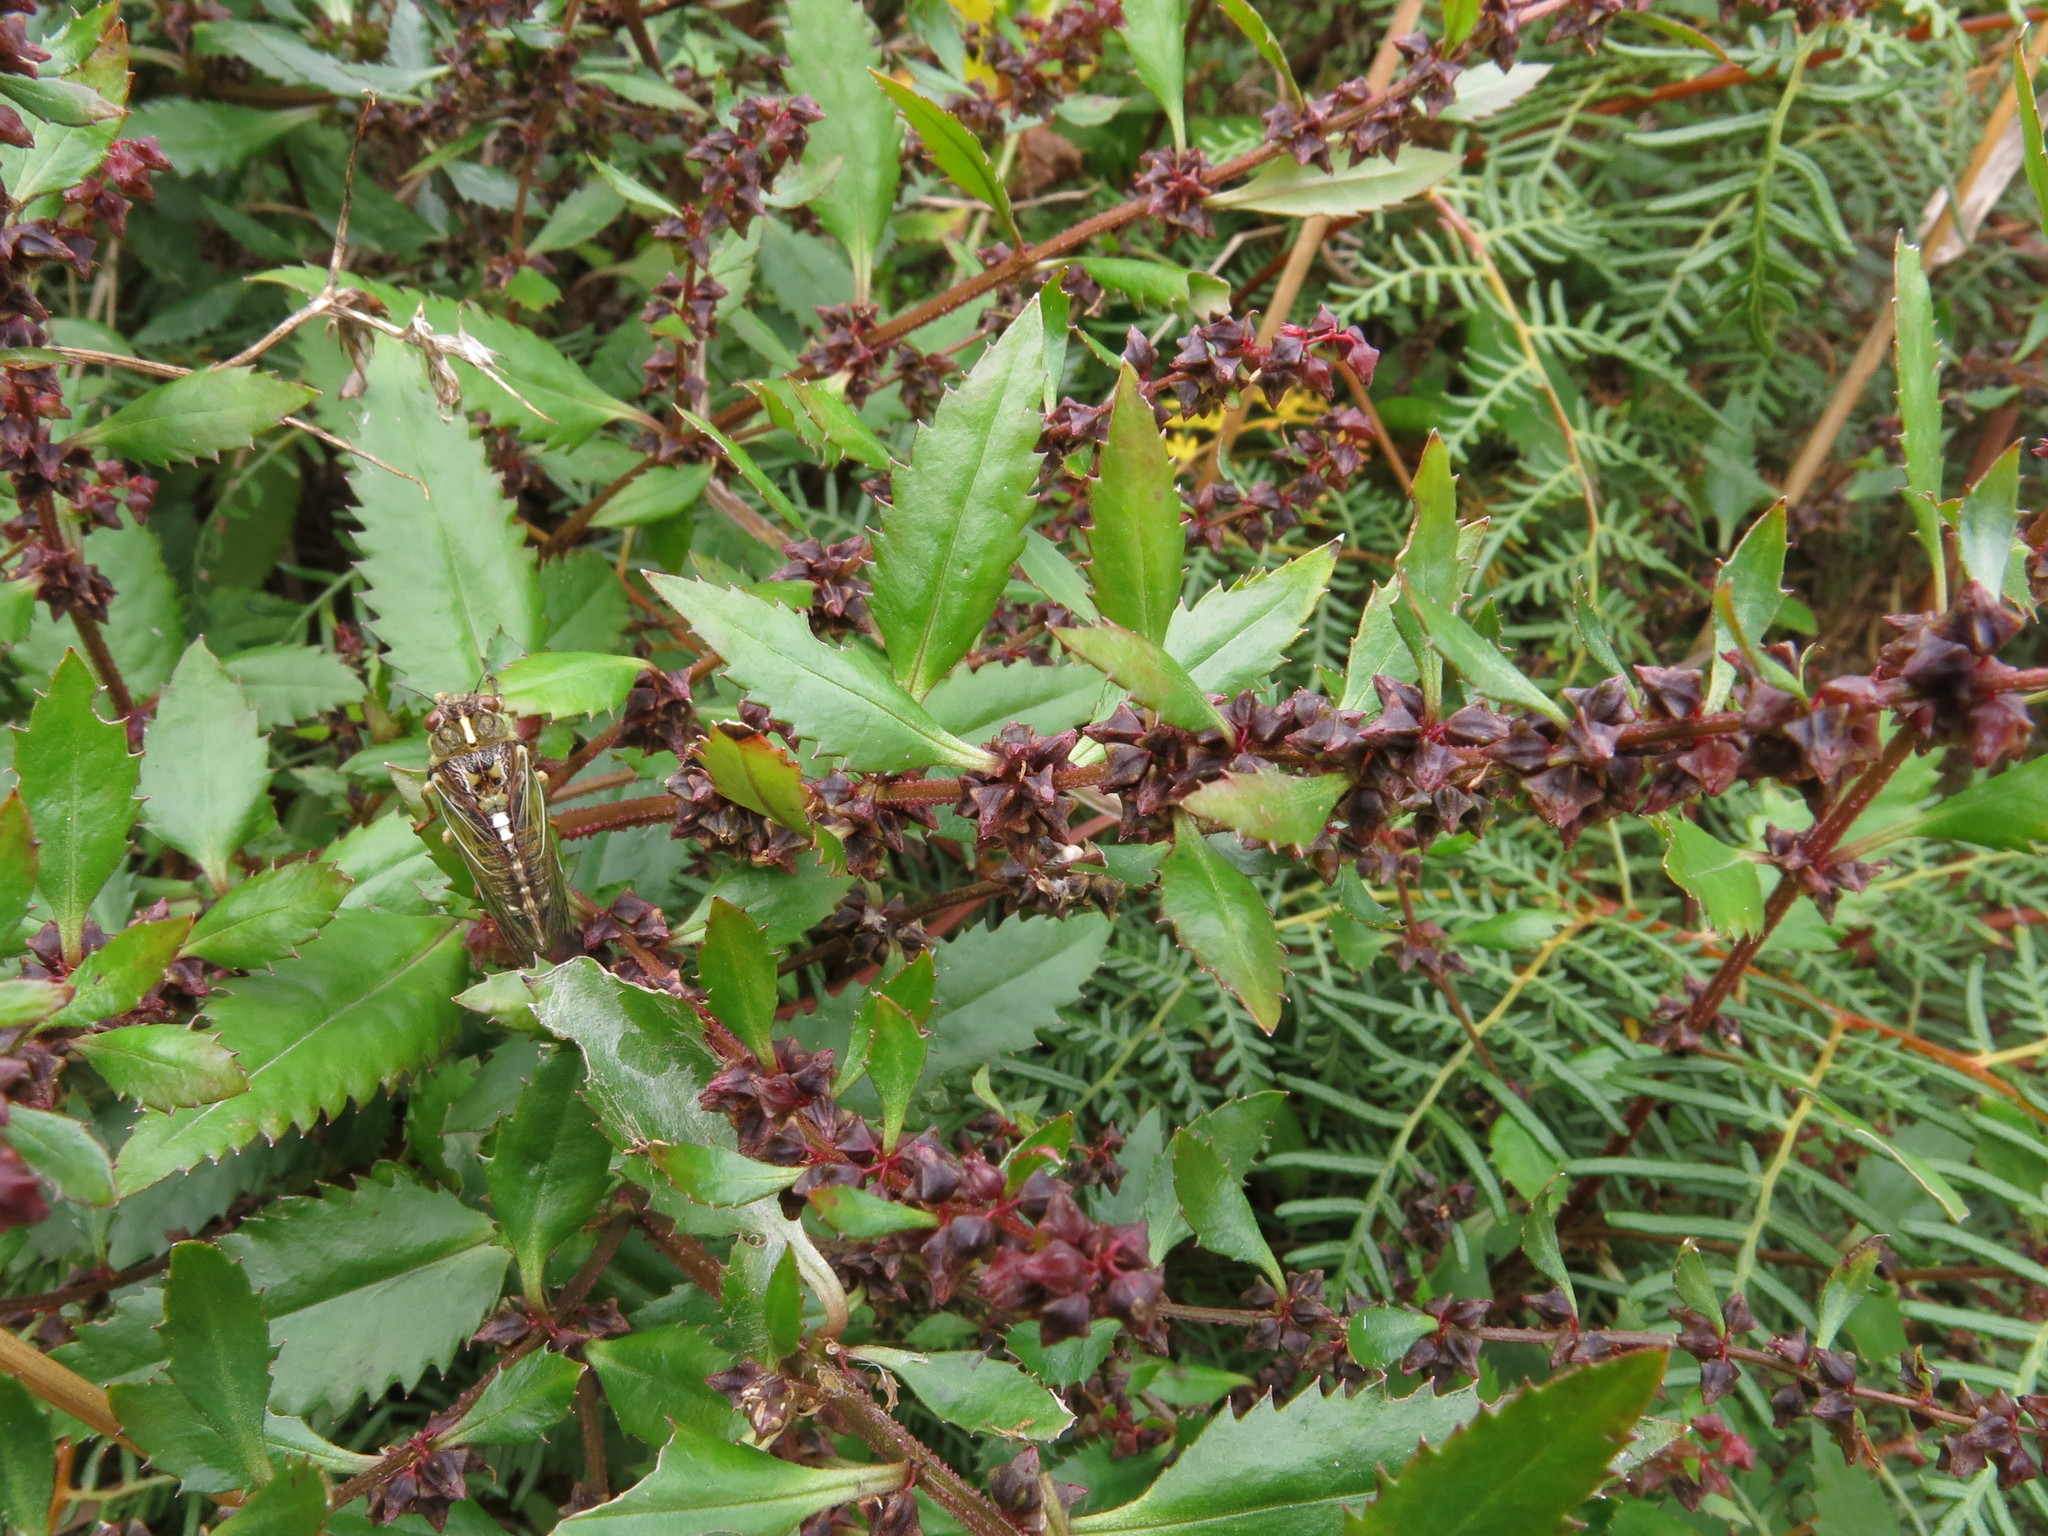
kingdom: Plantae
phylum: Tracheophyta
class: Magnoliopsida
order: Saxifragales
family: Haloragaceae
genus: Haloragis
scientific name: Haloragis erecta
